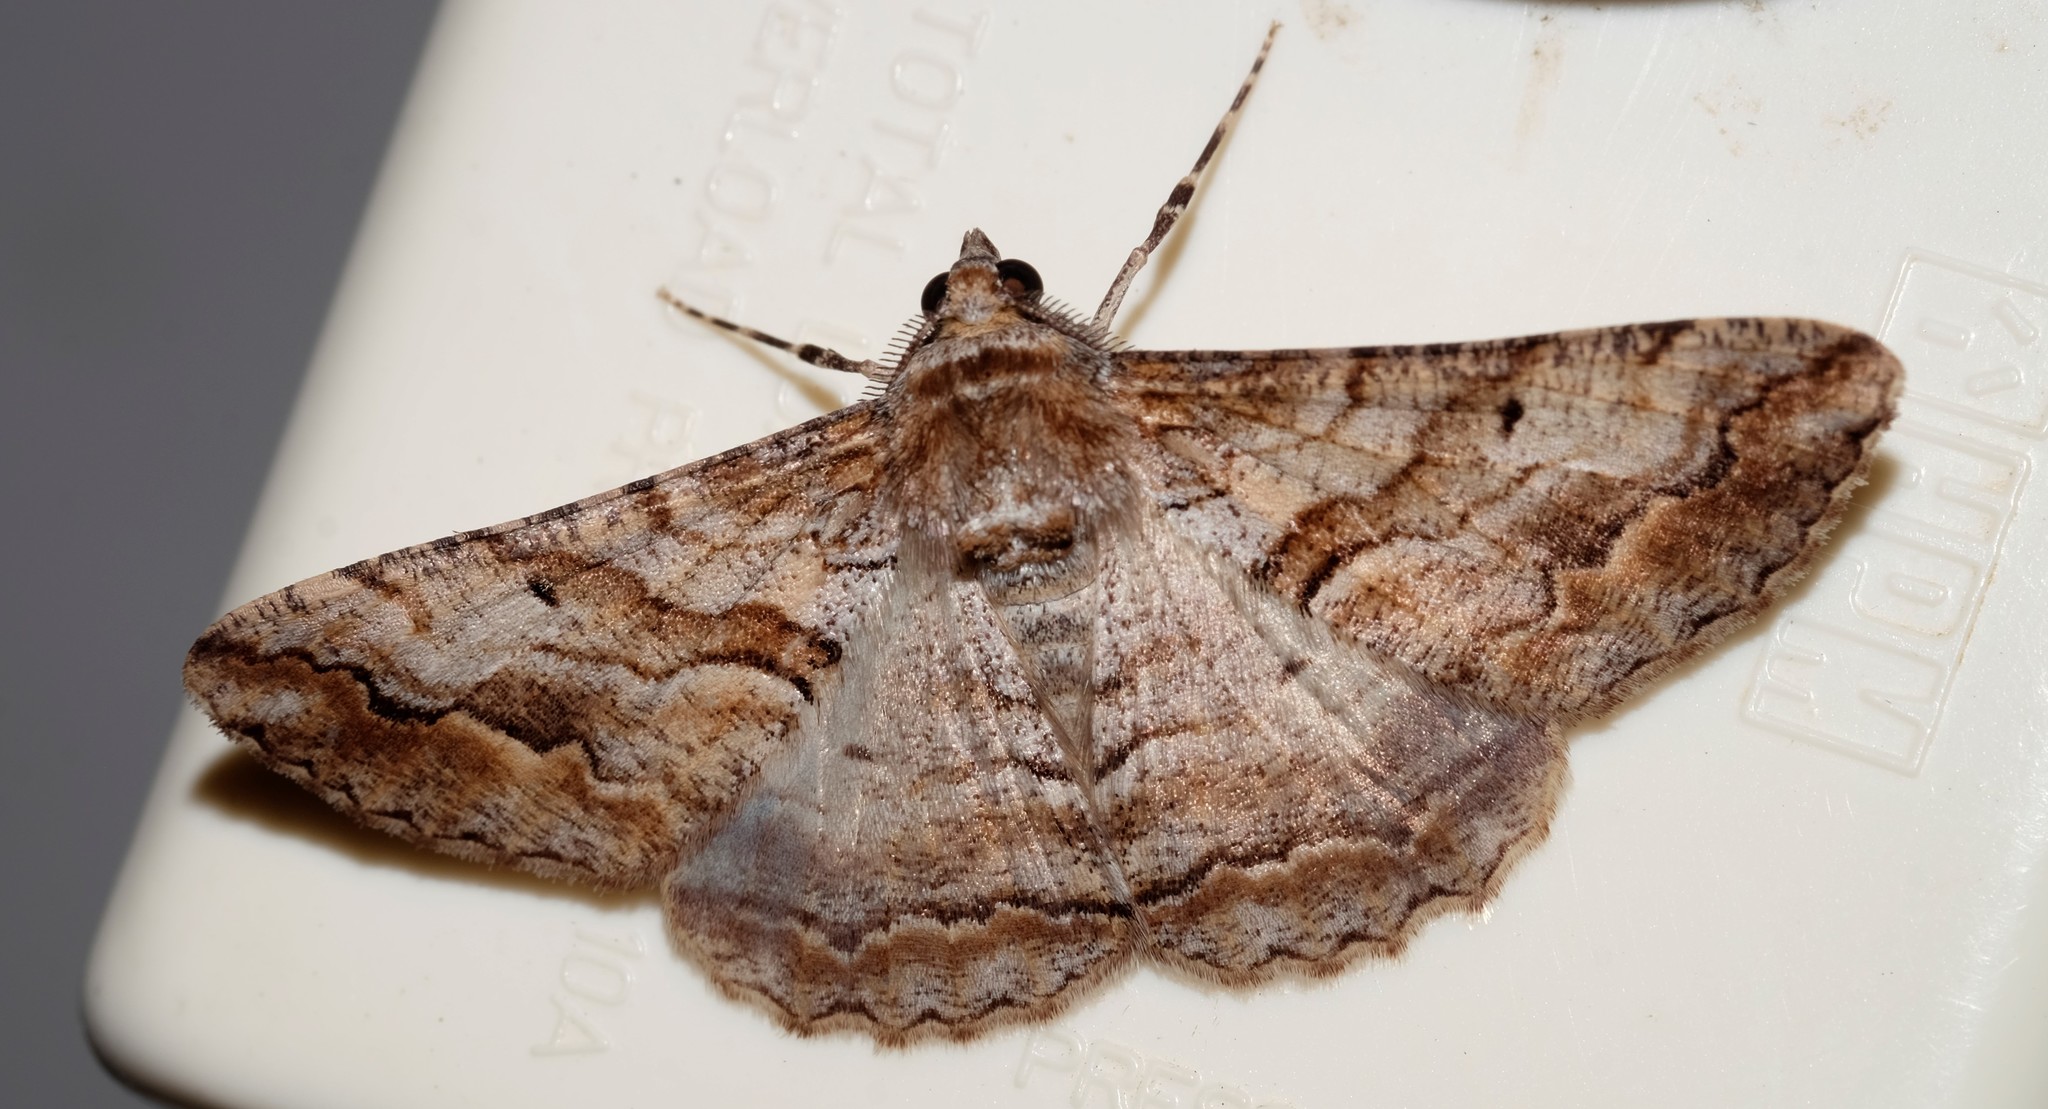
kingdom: Animalia
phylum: Arthropoda
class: Insecta
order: Lepidoptera
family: Geometridae
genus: Gastrinodes
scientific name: Gastrinodes bitaeniaria
